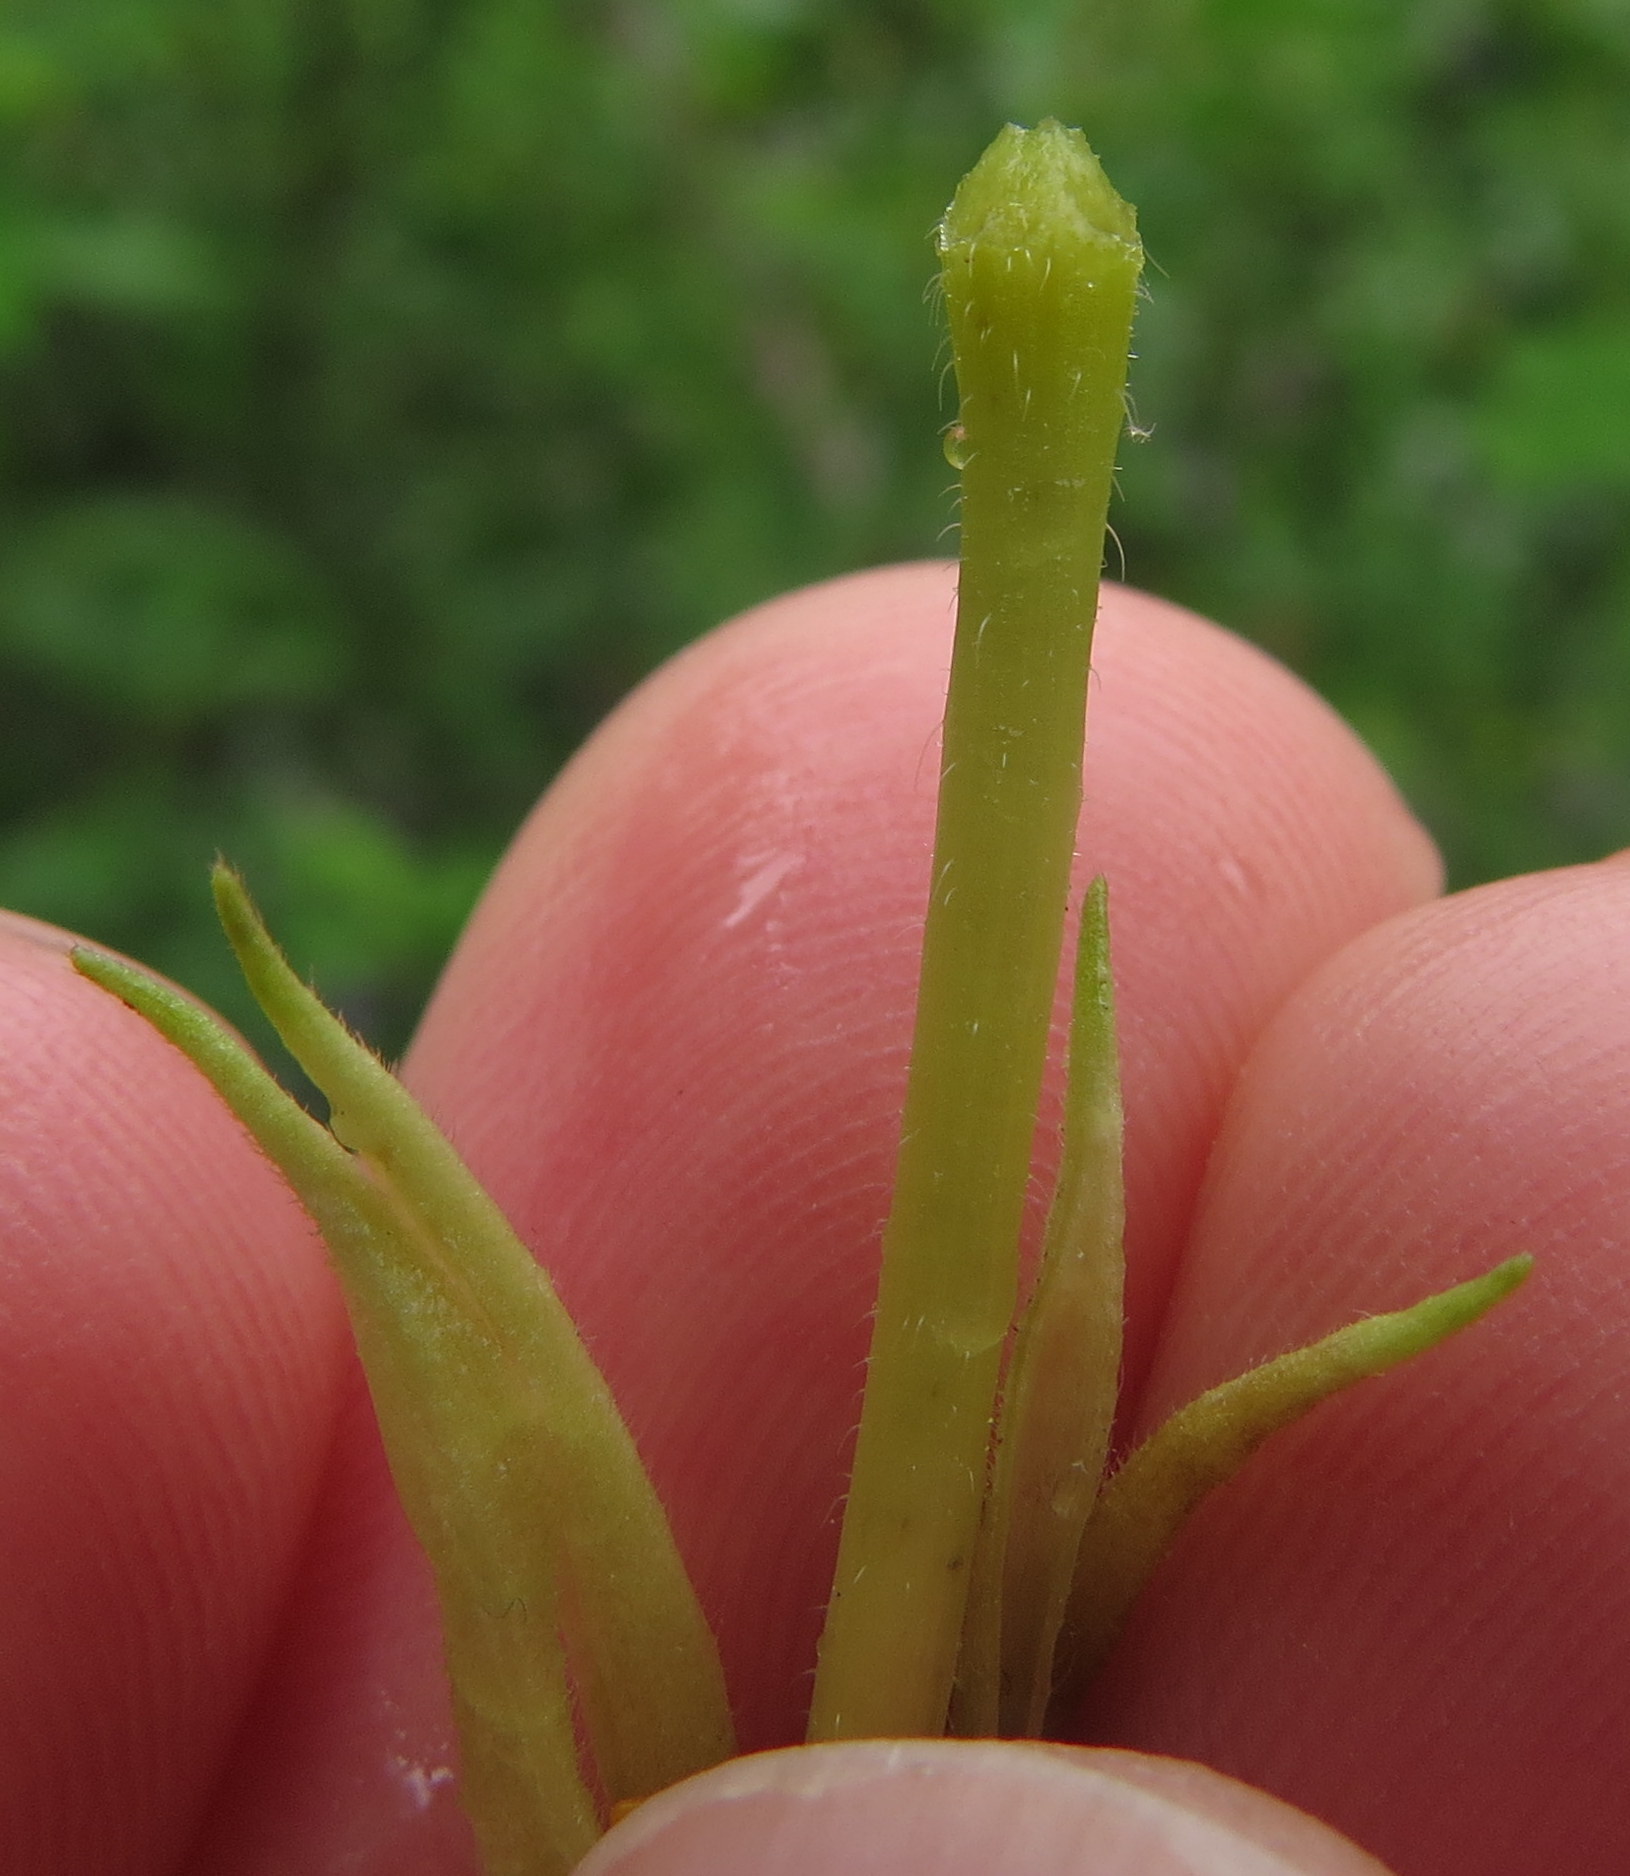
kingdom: Plantae
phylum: Tracheophyta
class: Magnoliopsida
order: Myrtales
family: Onagraceae
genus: Oenothera
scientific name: Oenothera biennis
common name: Common evening-primrose
